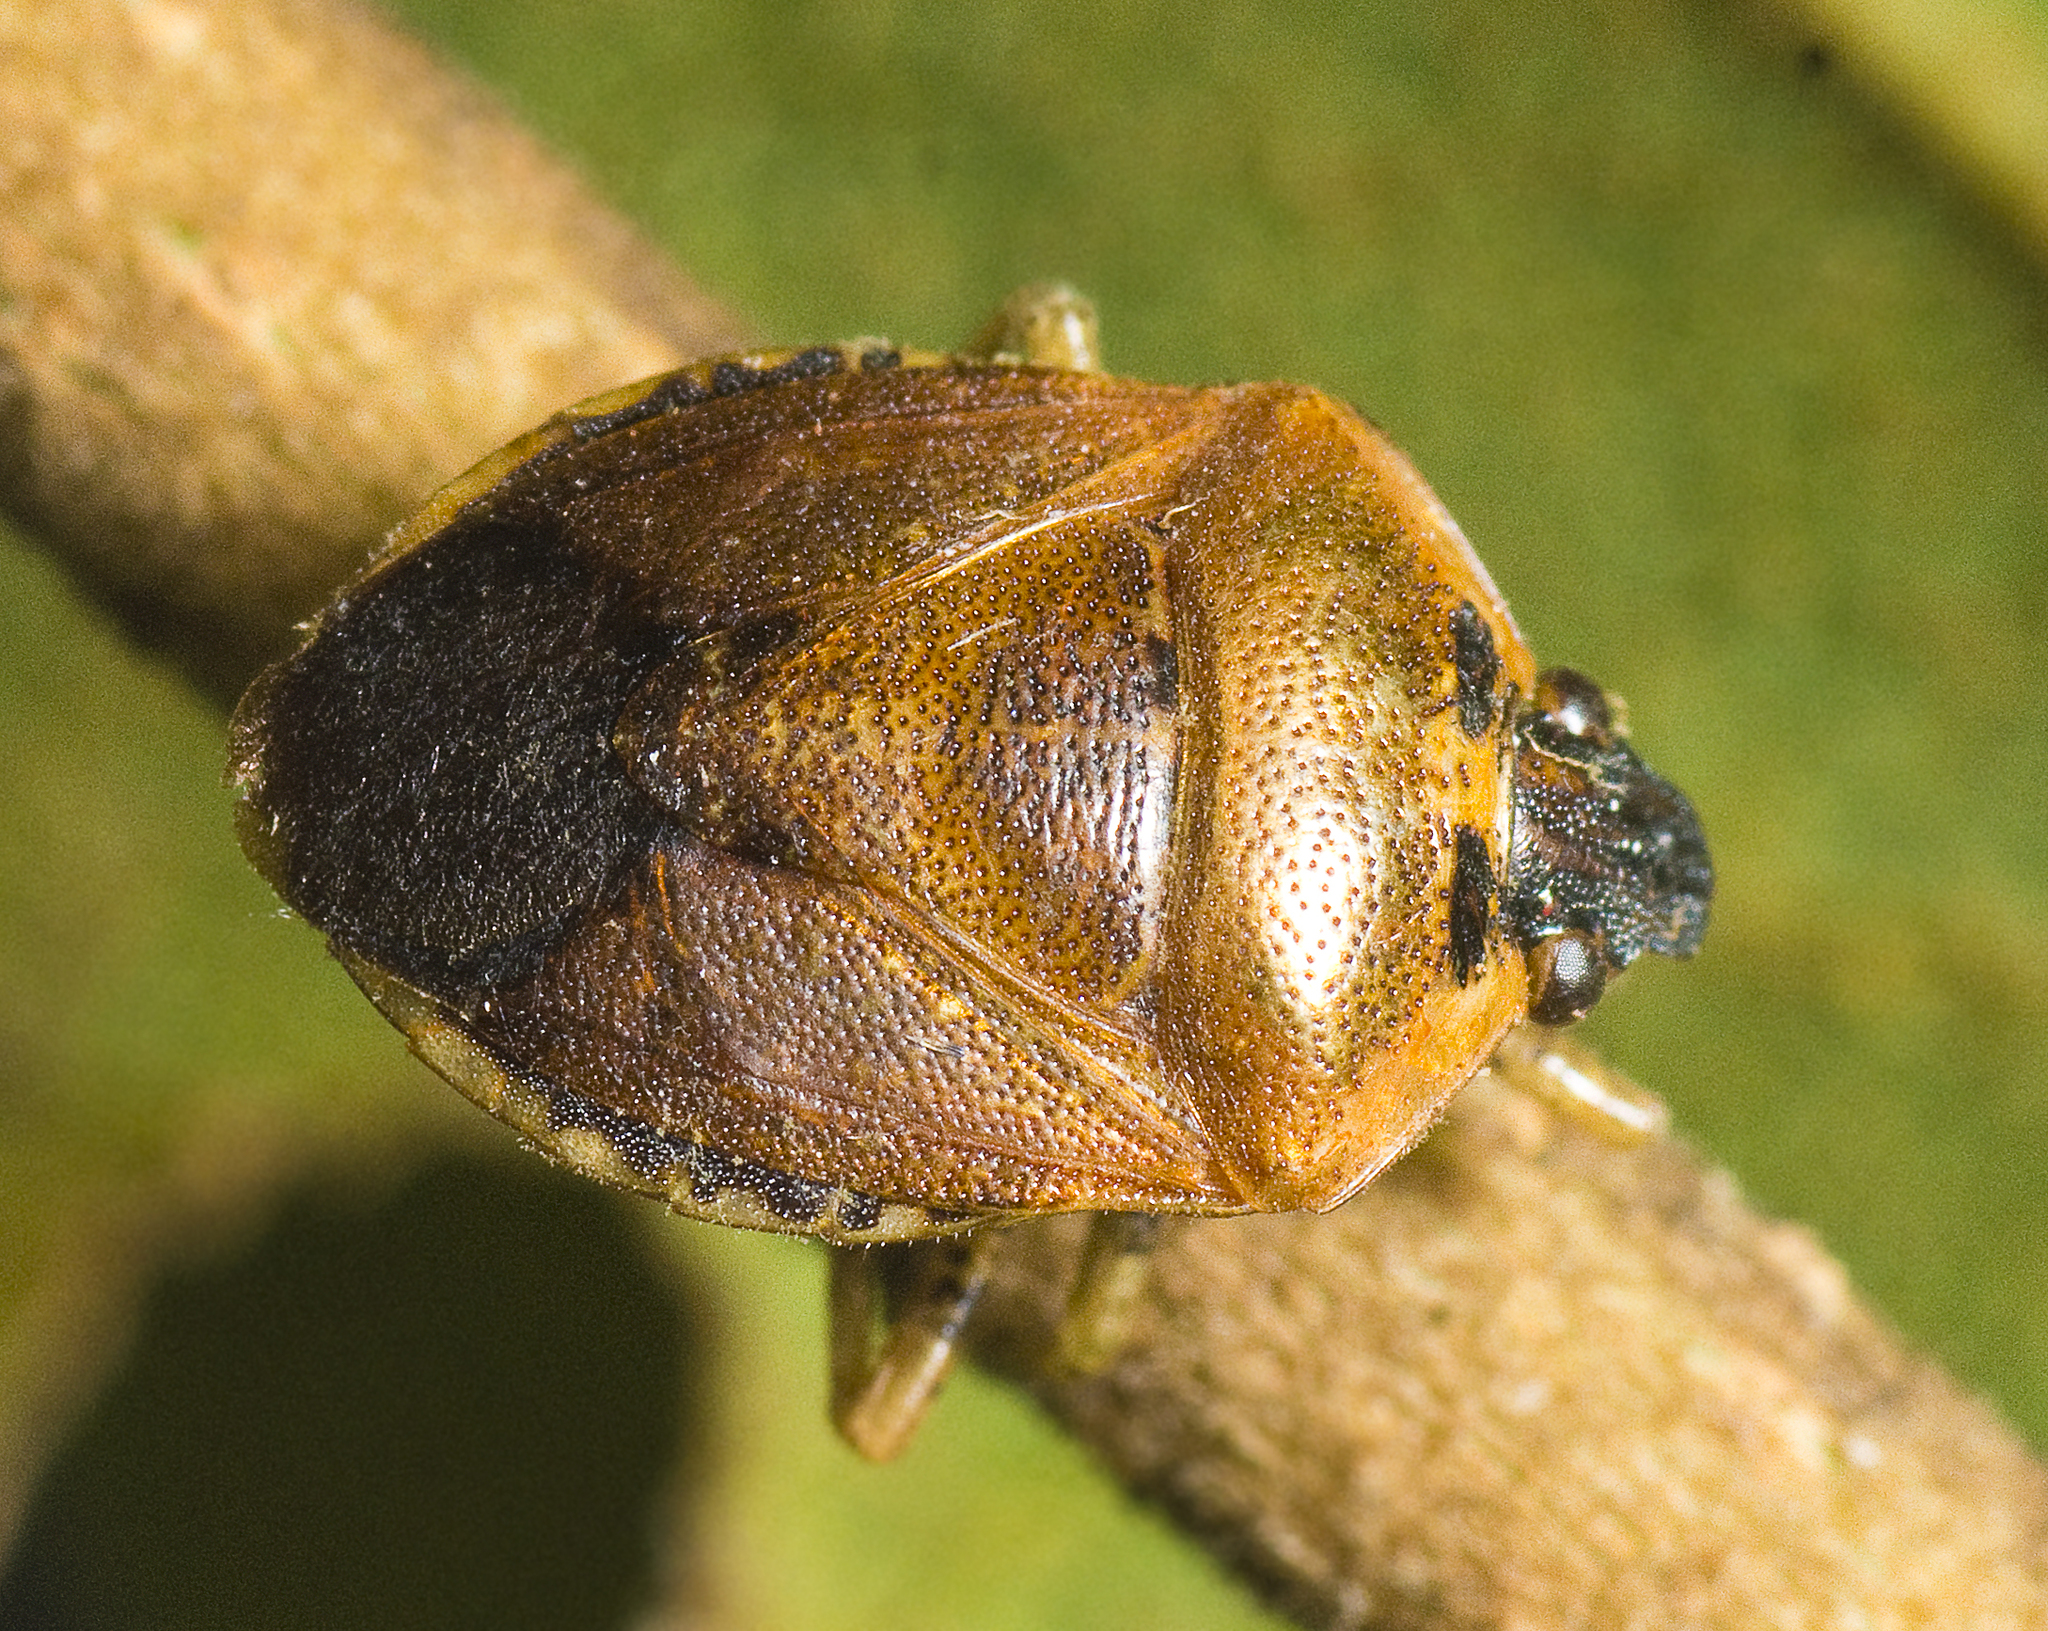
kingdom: Animalia
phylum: Arthropoda
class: Insecta
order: Hemiptera
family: Pentatomidae
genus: Monteithiella
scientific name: Monteithiella
